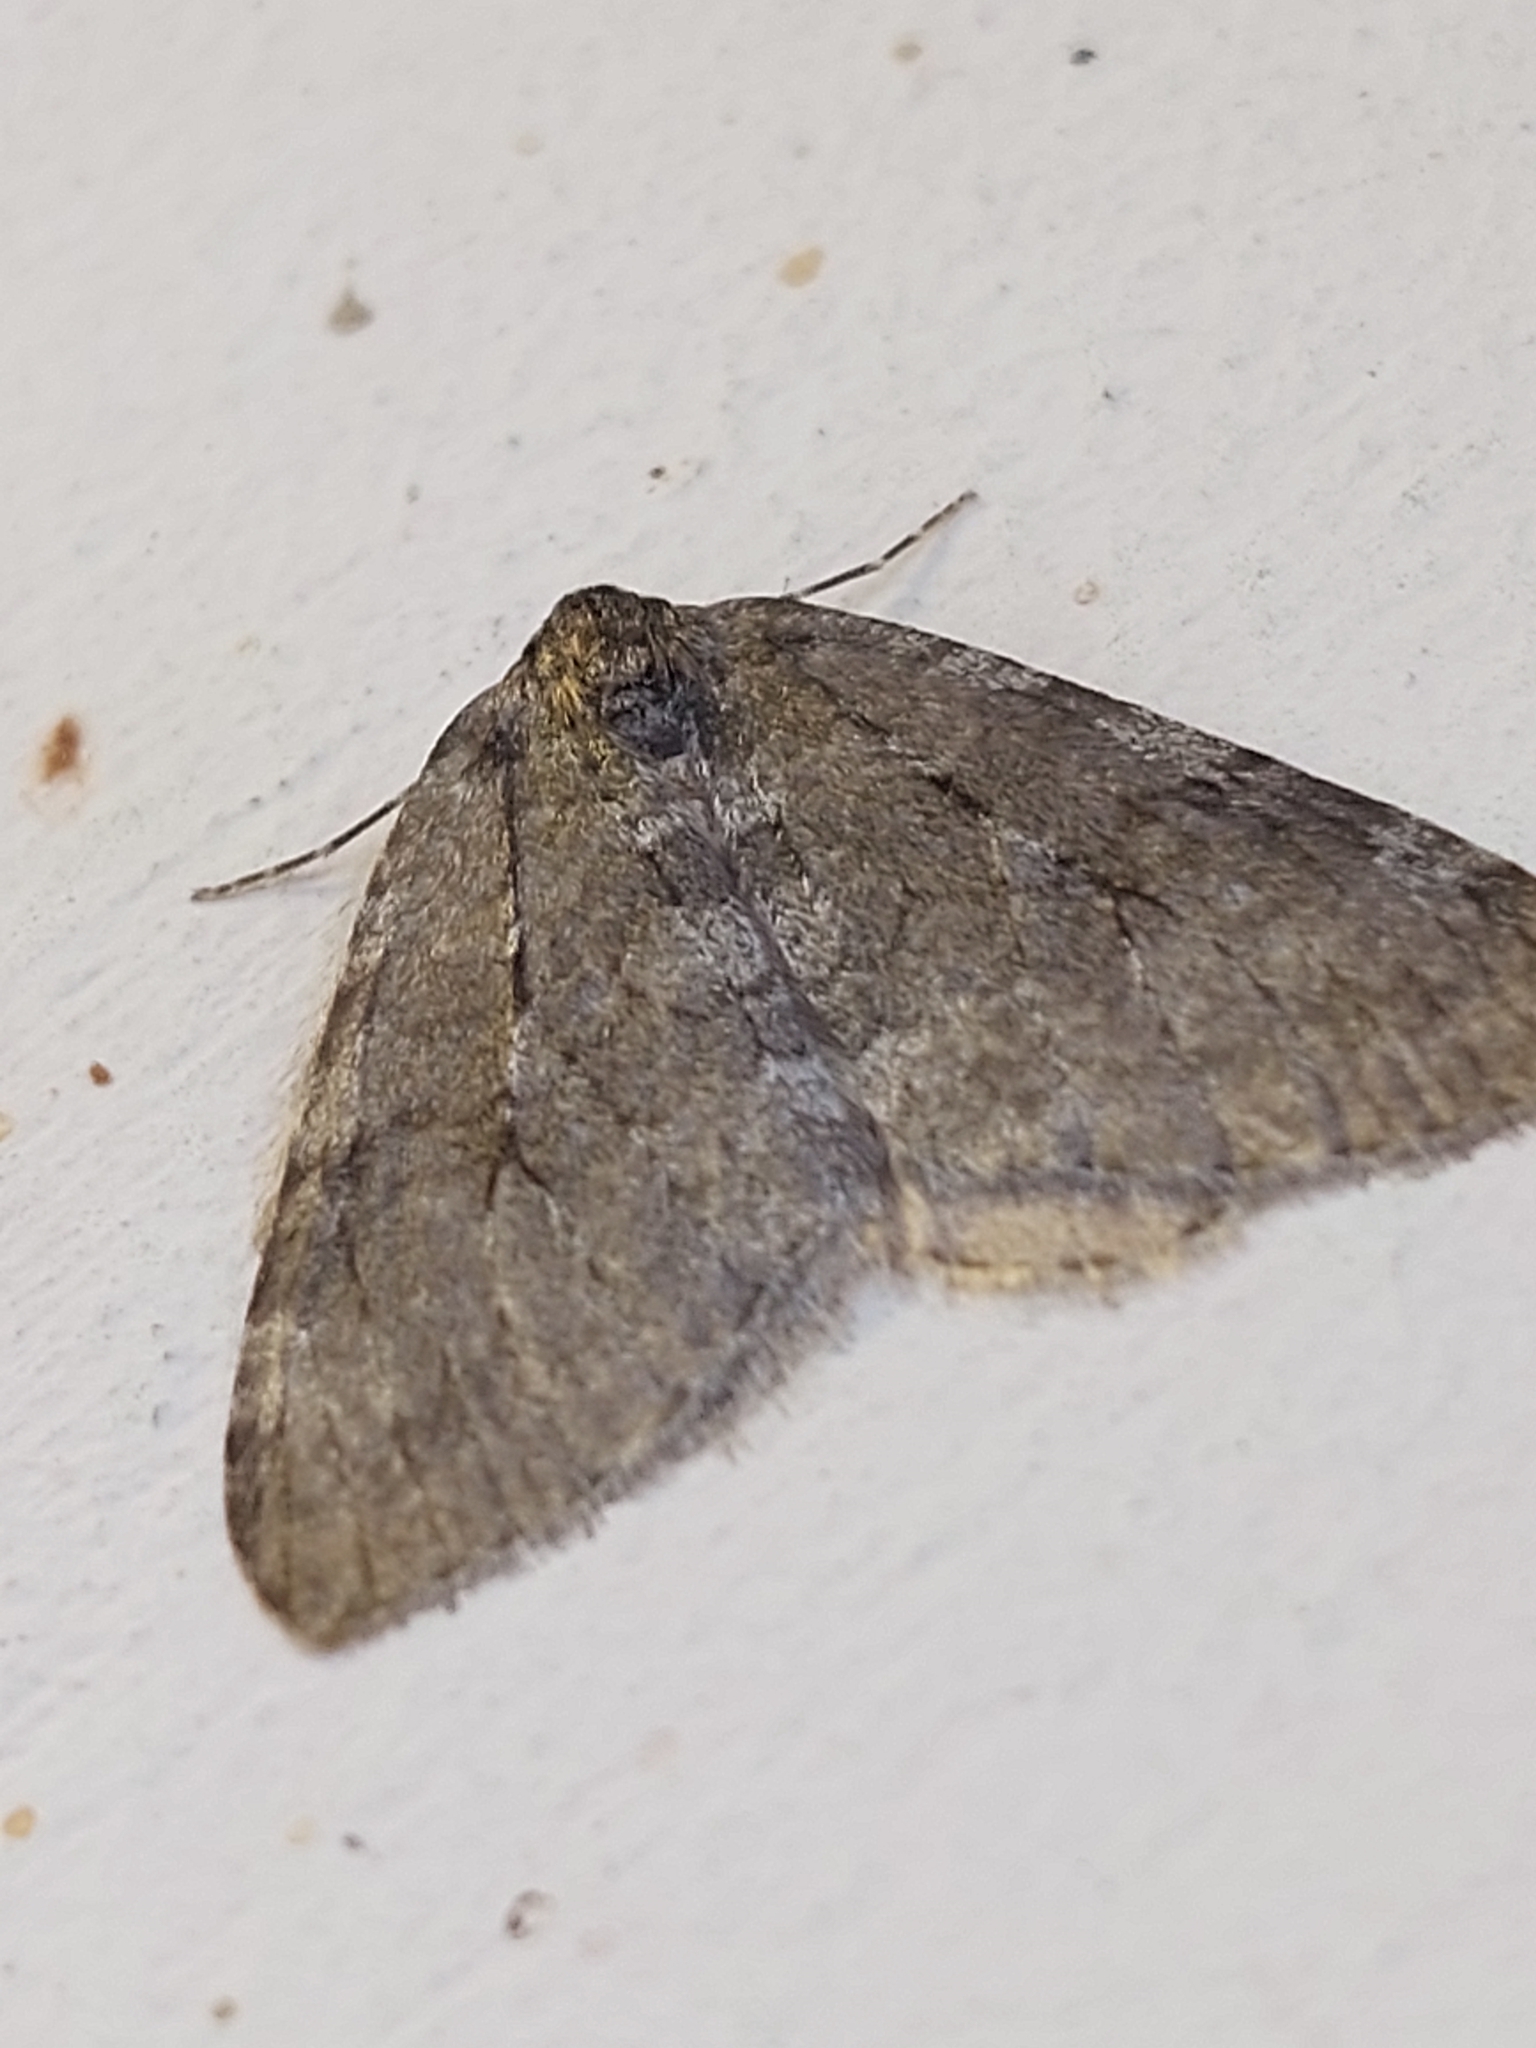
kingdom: Animalia
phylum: Arthropoda
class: Insecta
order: Lepidoptera
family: Geometridae
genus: Epirrita
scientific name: Epirrita
